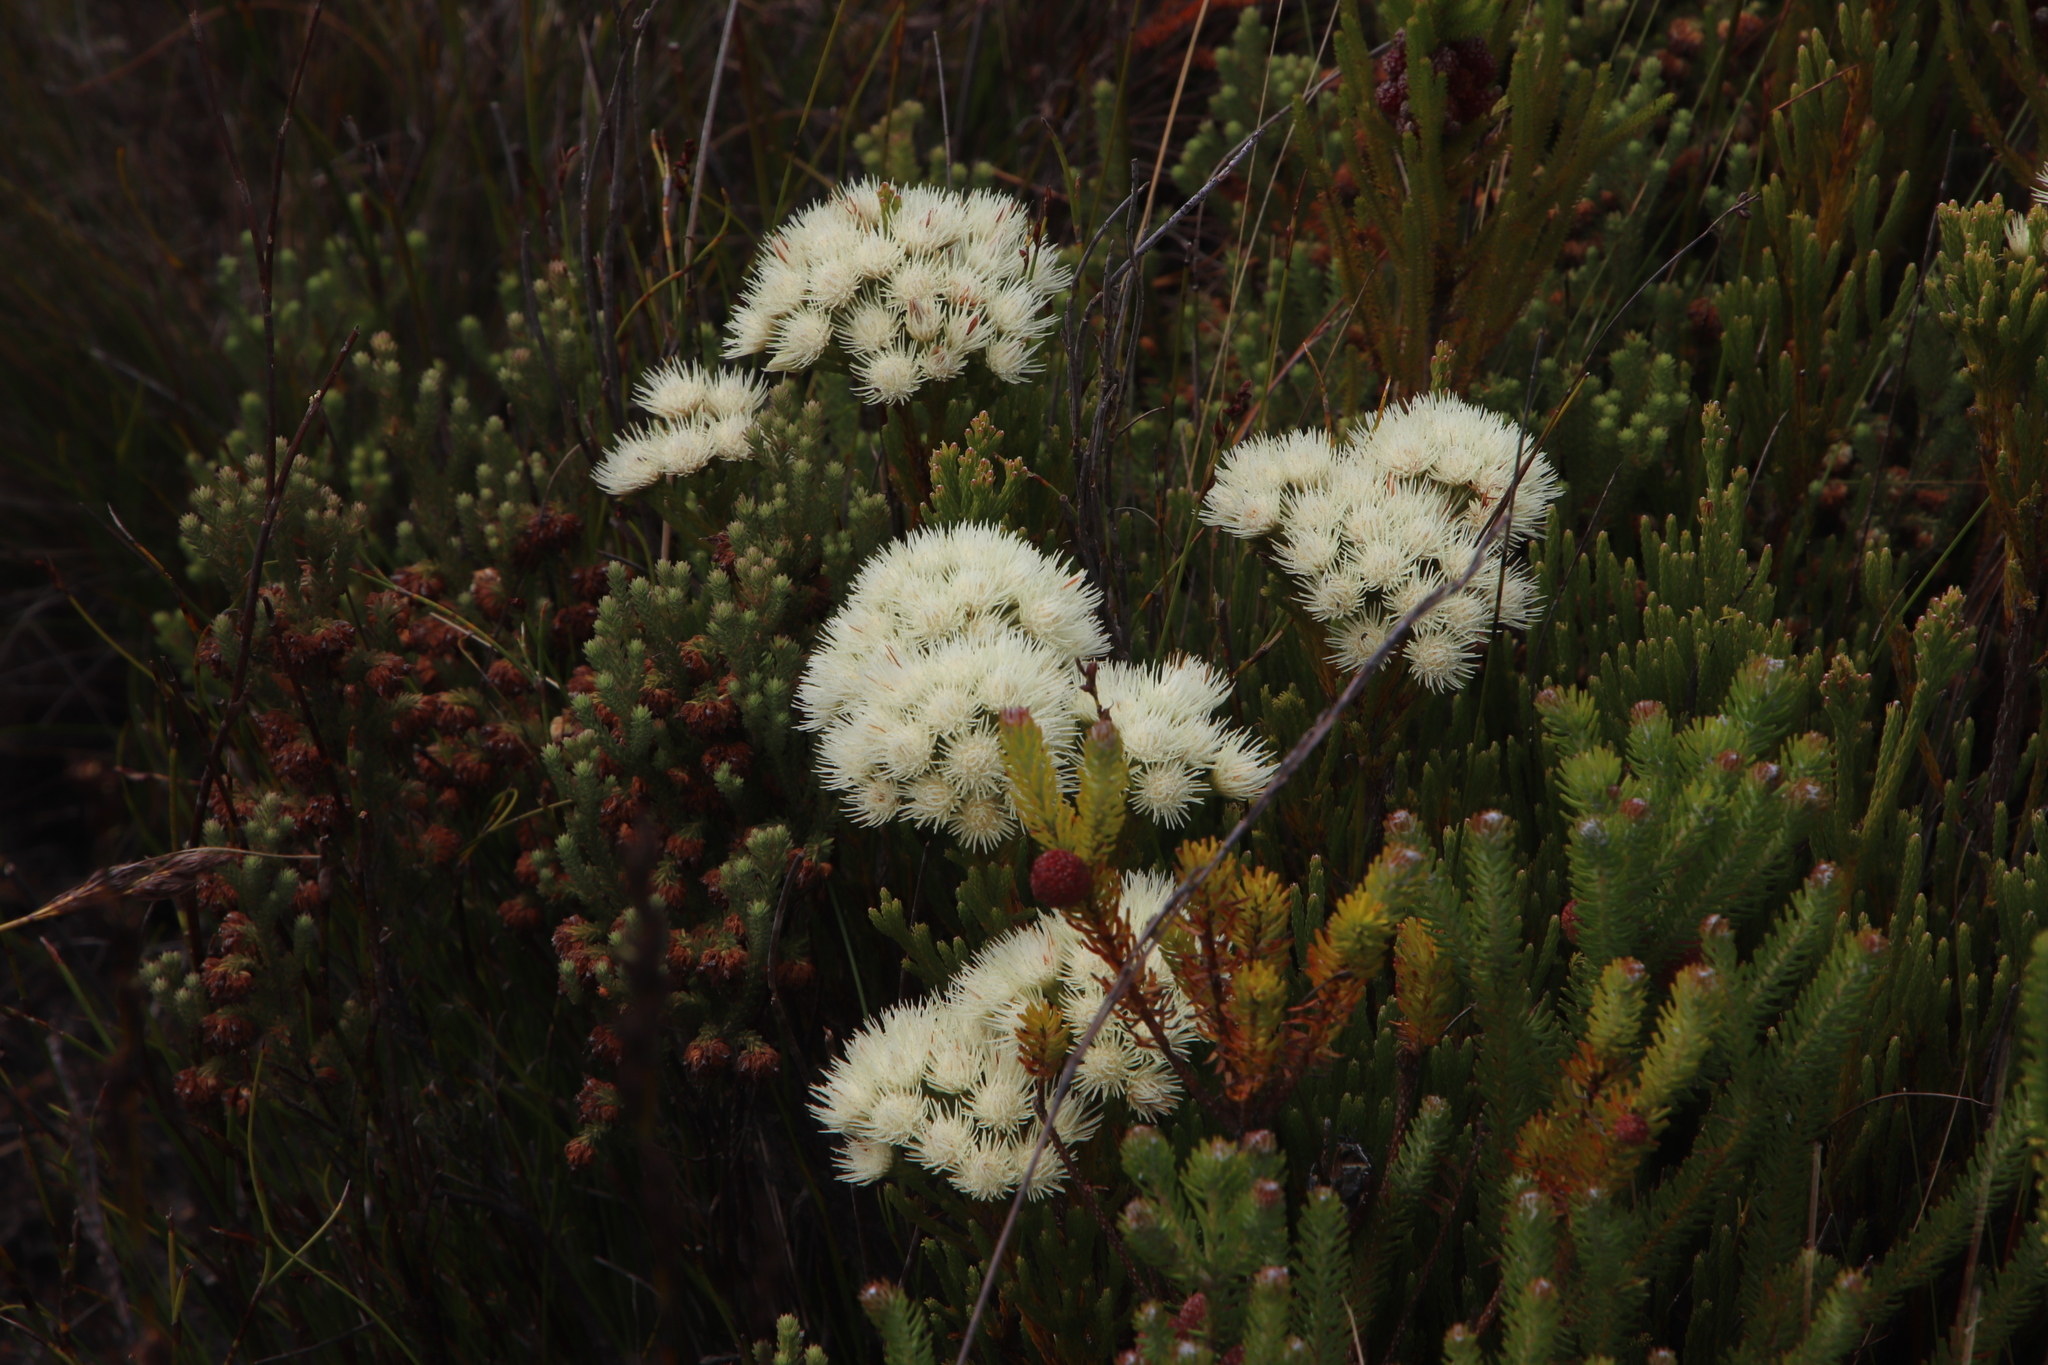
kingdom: Plantae
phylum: Tracheophyta
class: Magnoliopsida
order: Bruniales
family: Bruniaceae
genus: Brunia
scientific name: Brunia paleacea
